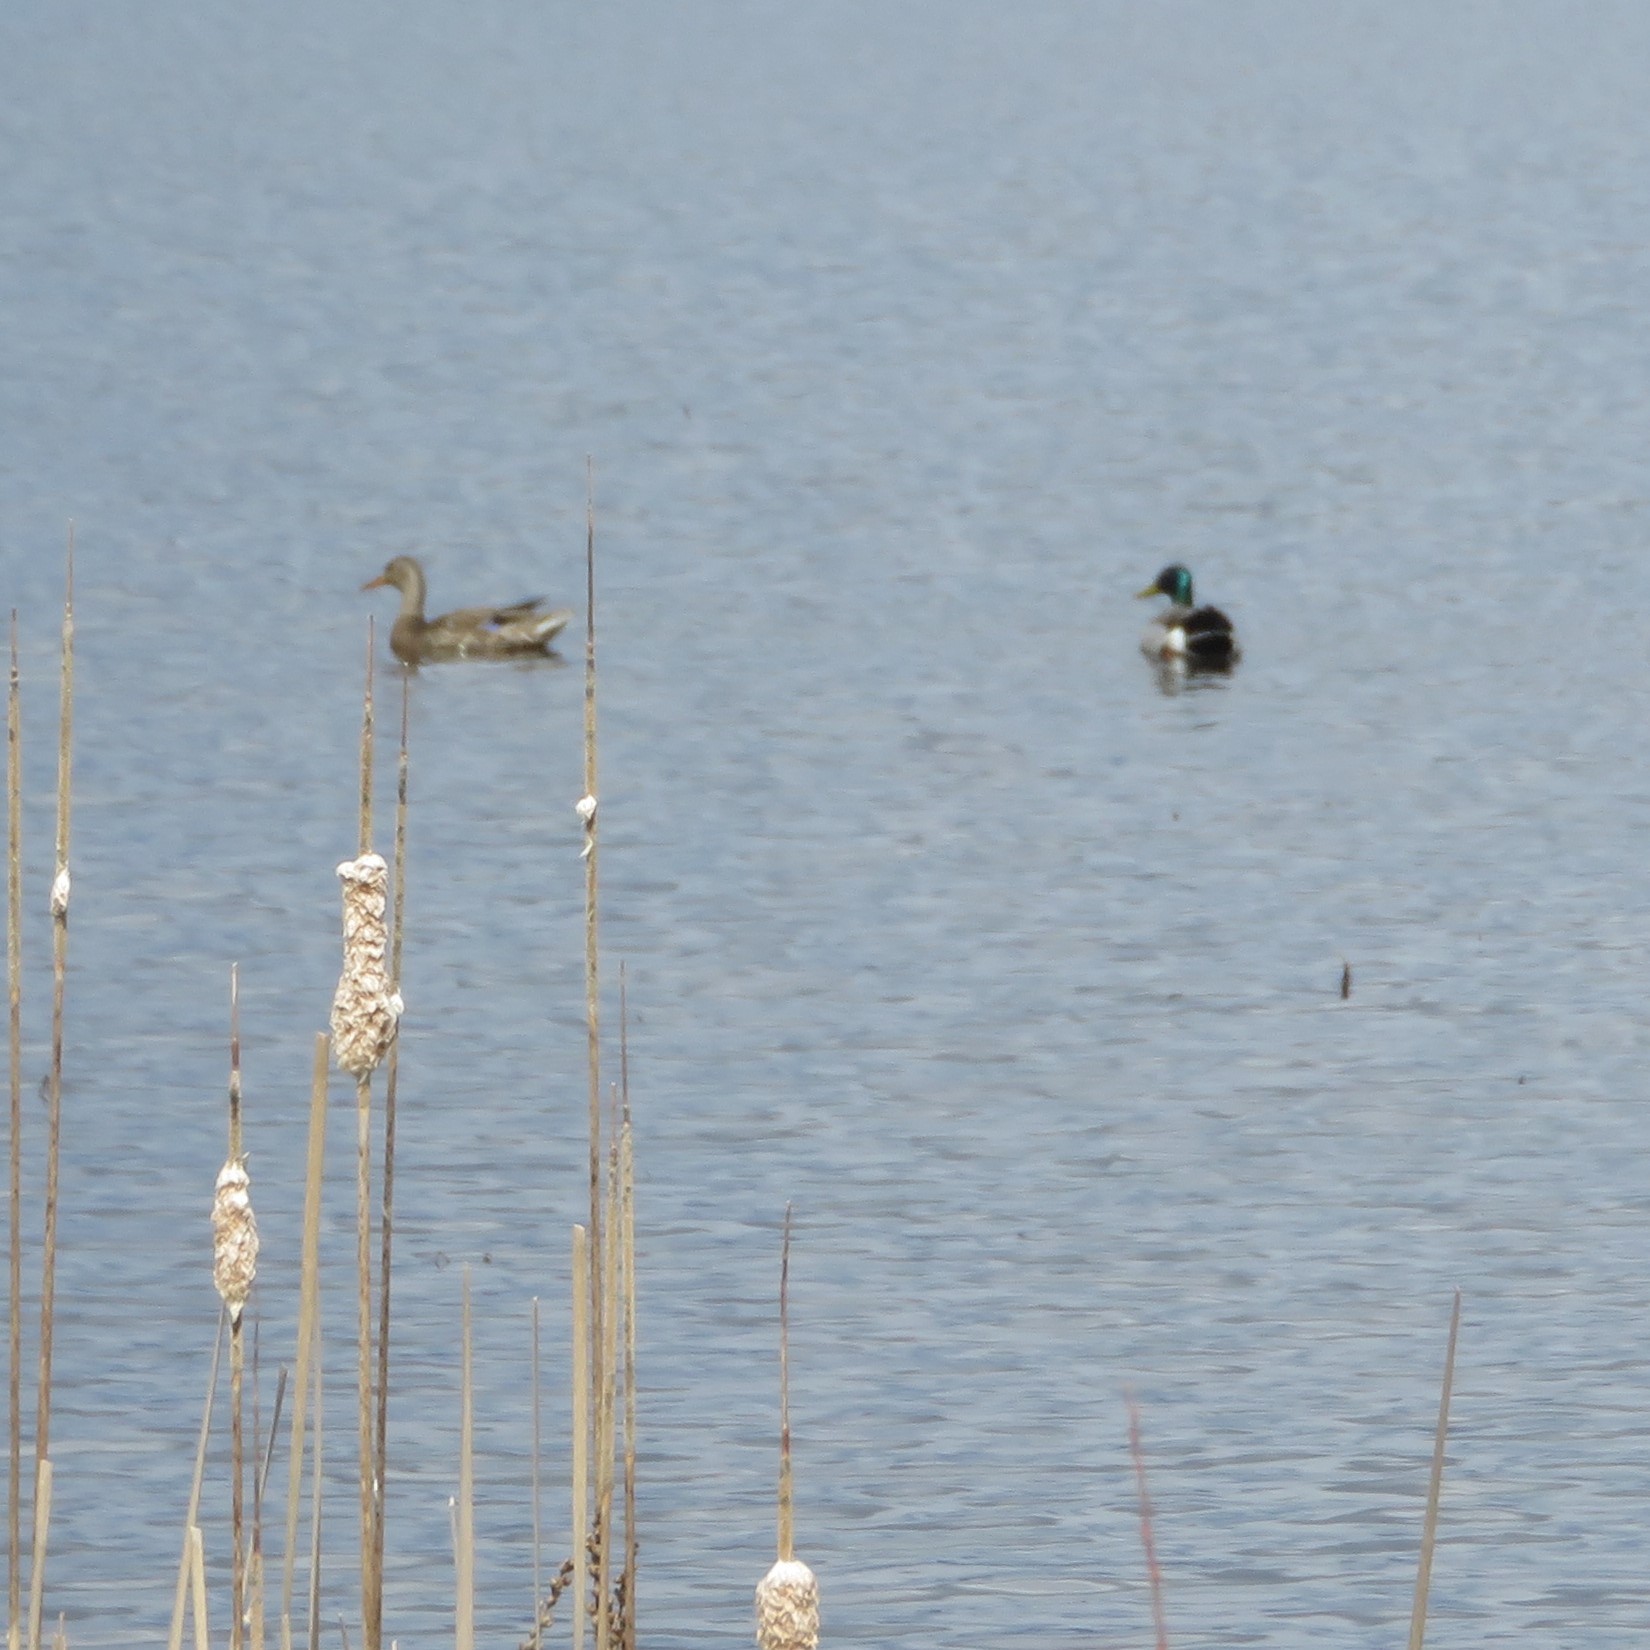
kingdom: Animalia
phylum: Chordata
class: Aves
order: Anseriformes
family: Anatidae
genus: Anas
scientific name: Anas platyrhynchos
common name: Mallard
